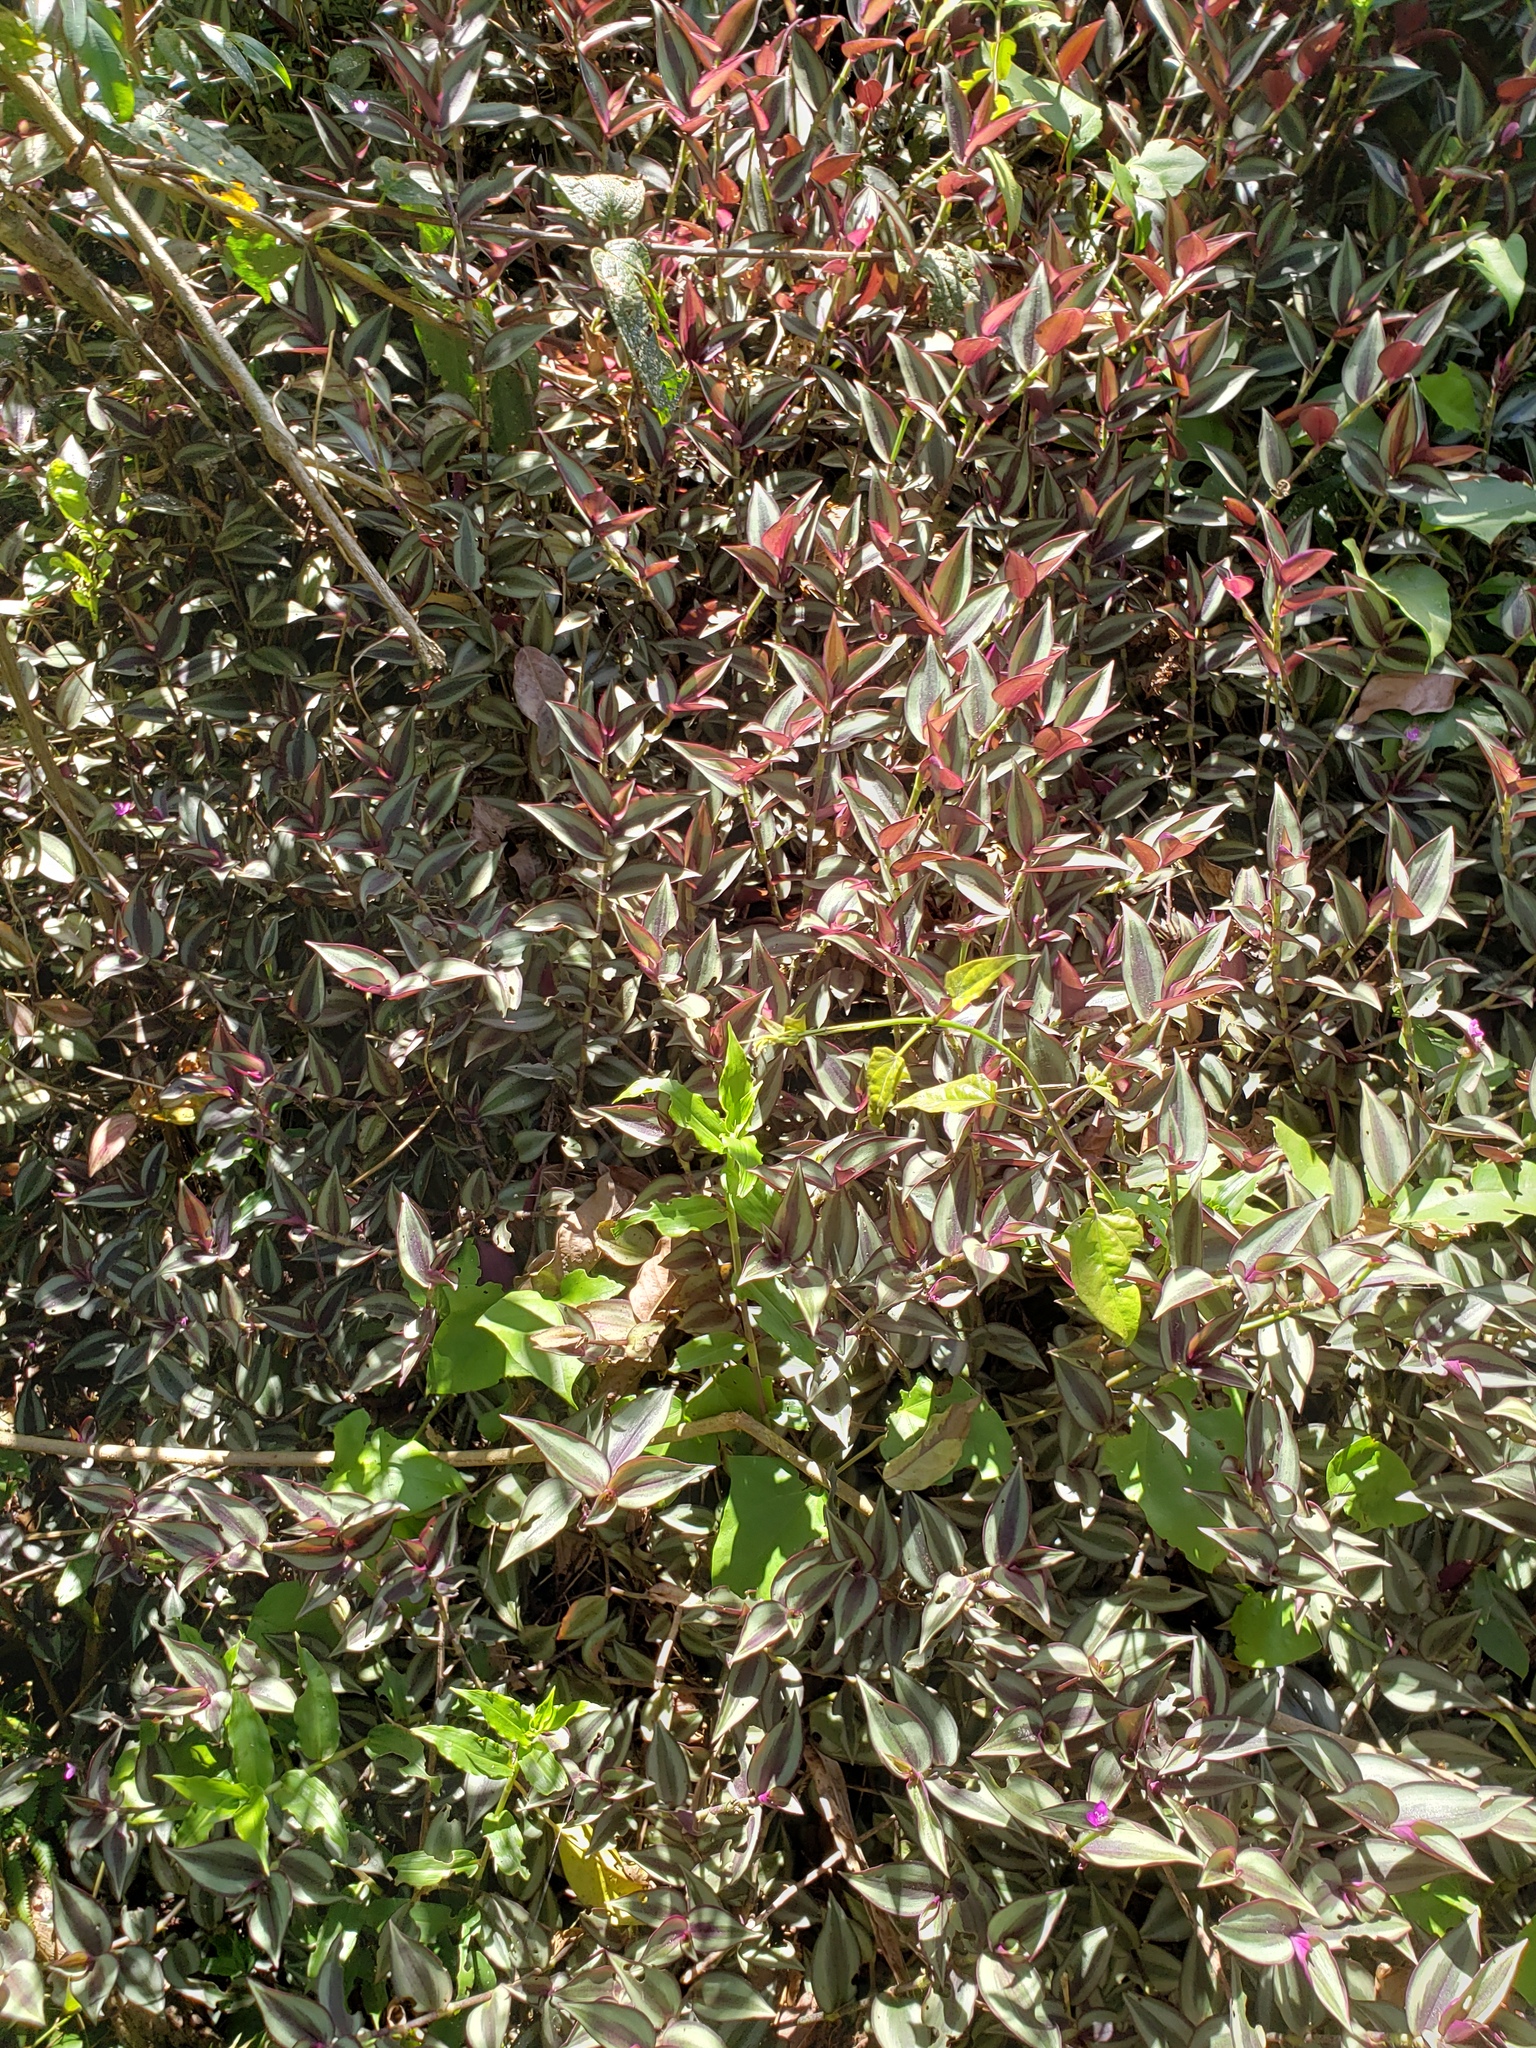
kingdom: Plantae
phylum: Tracheophyta
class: Liliopsida
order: Commelinales
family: Commelinaceae
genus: Tradescantia
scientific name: Tradescantia zebrina
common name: Inchplant
